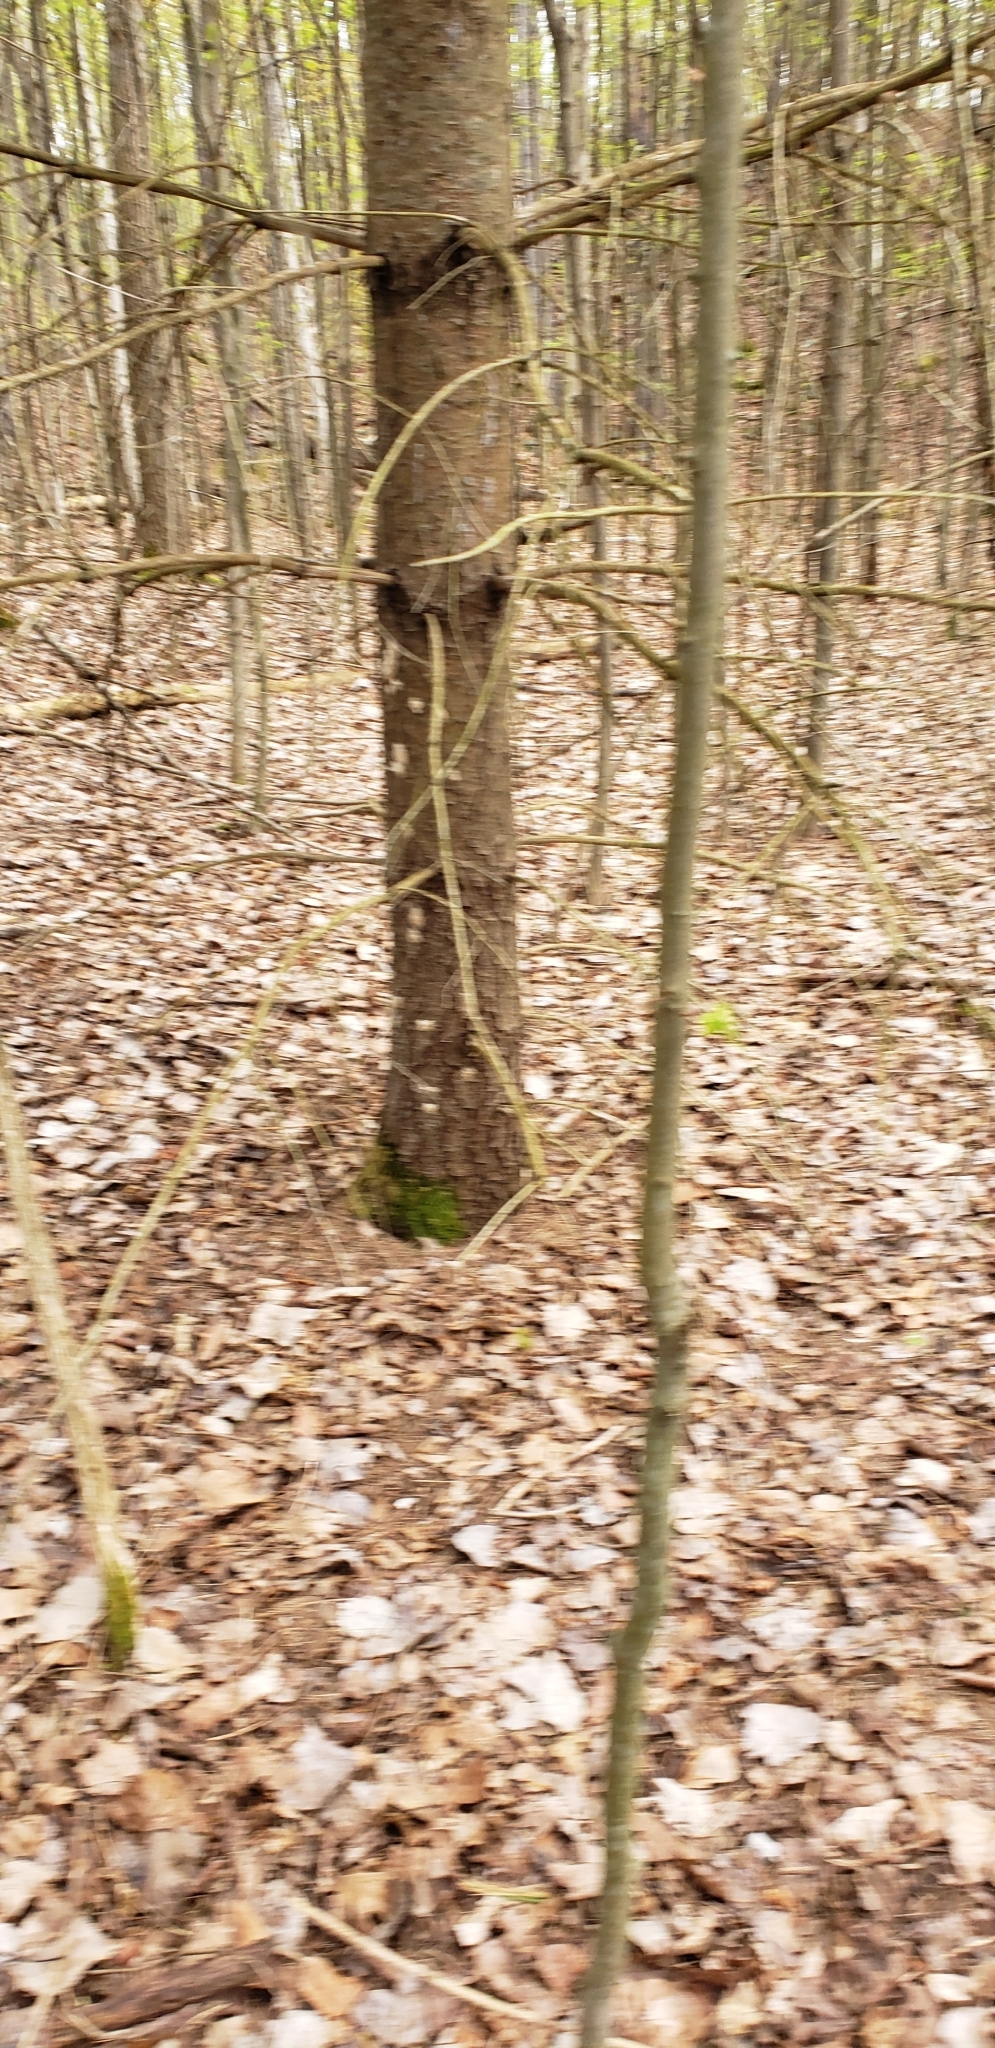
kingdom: Animalia
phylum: Arthropoda
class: Insecta
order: Lepidoptera
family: Erebidae
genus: Lymantria
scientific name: Lymantria dispar
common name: Gypsy moth
